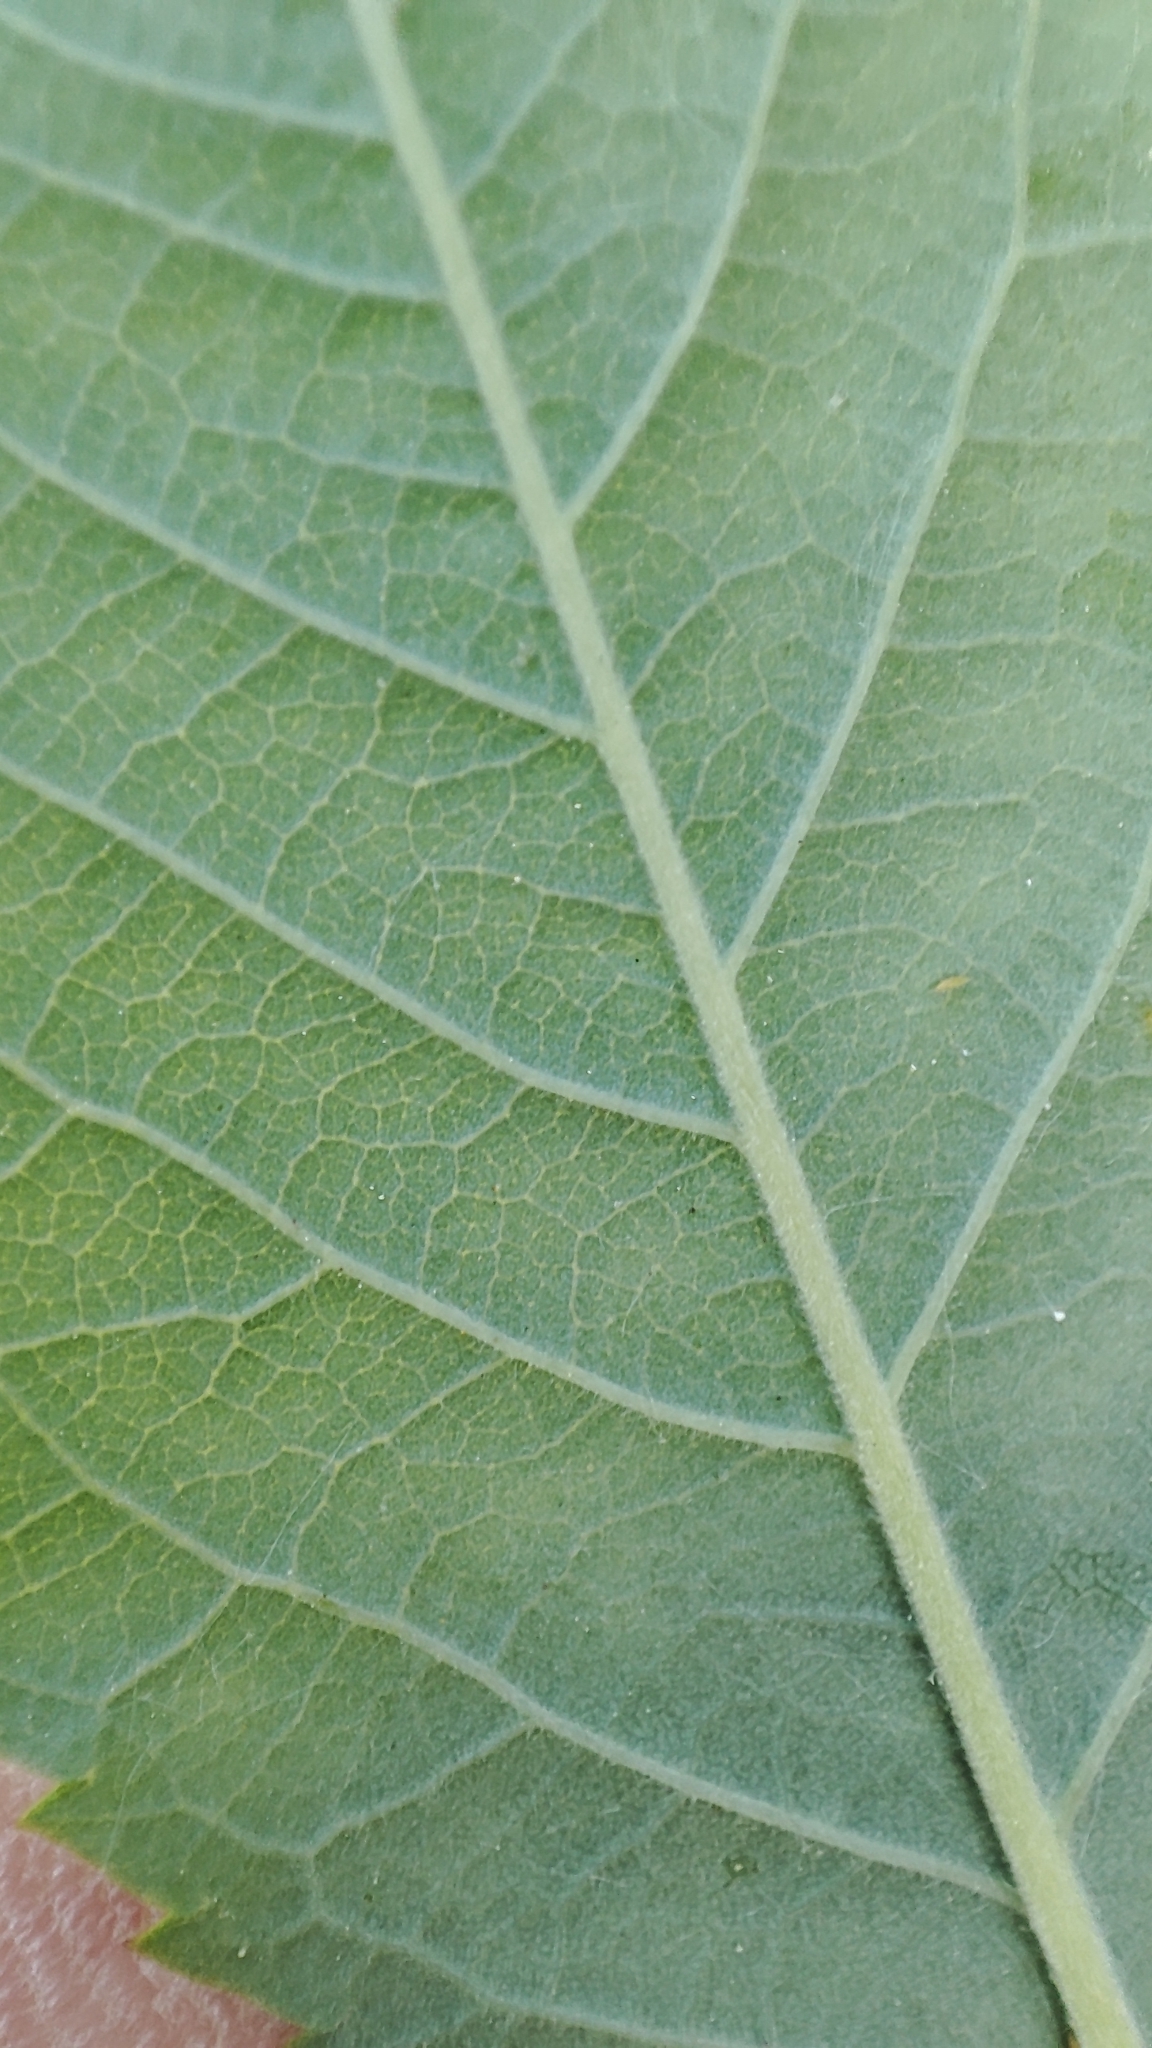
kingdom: Plantae
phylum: Tracheophyta
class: Magnoliopsida
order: Rosales
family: Rosaceae
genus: Rosa
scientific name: Rosa majalis
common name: Cinnamon rose
